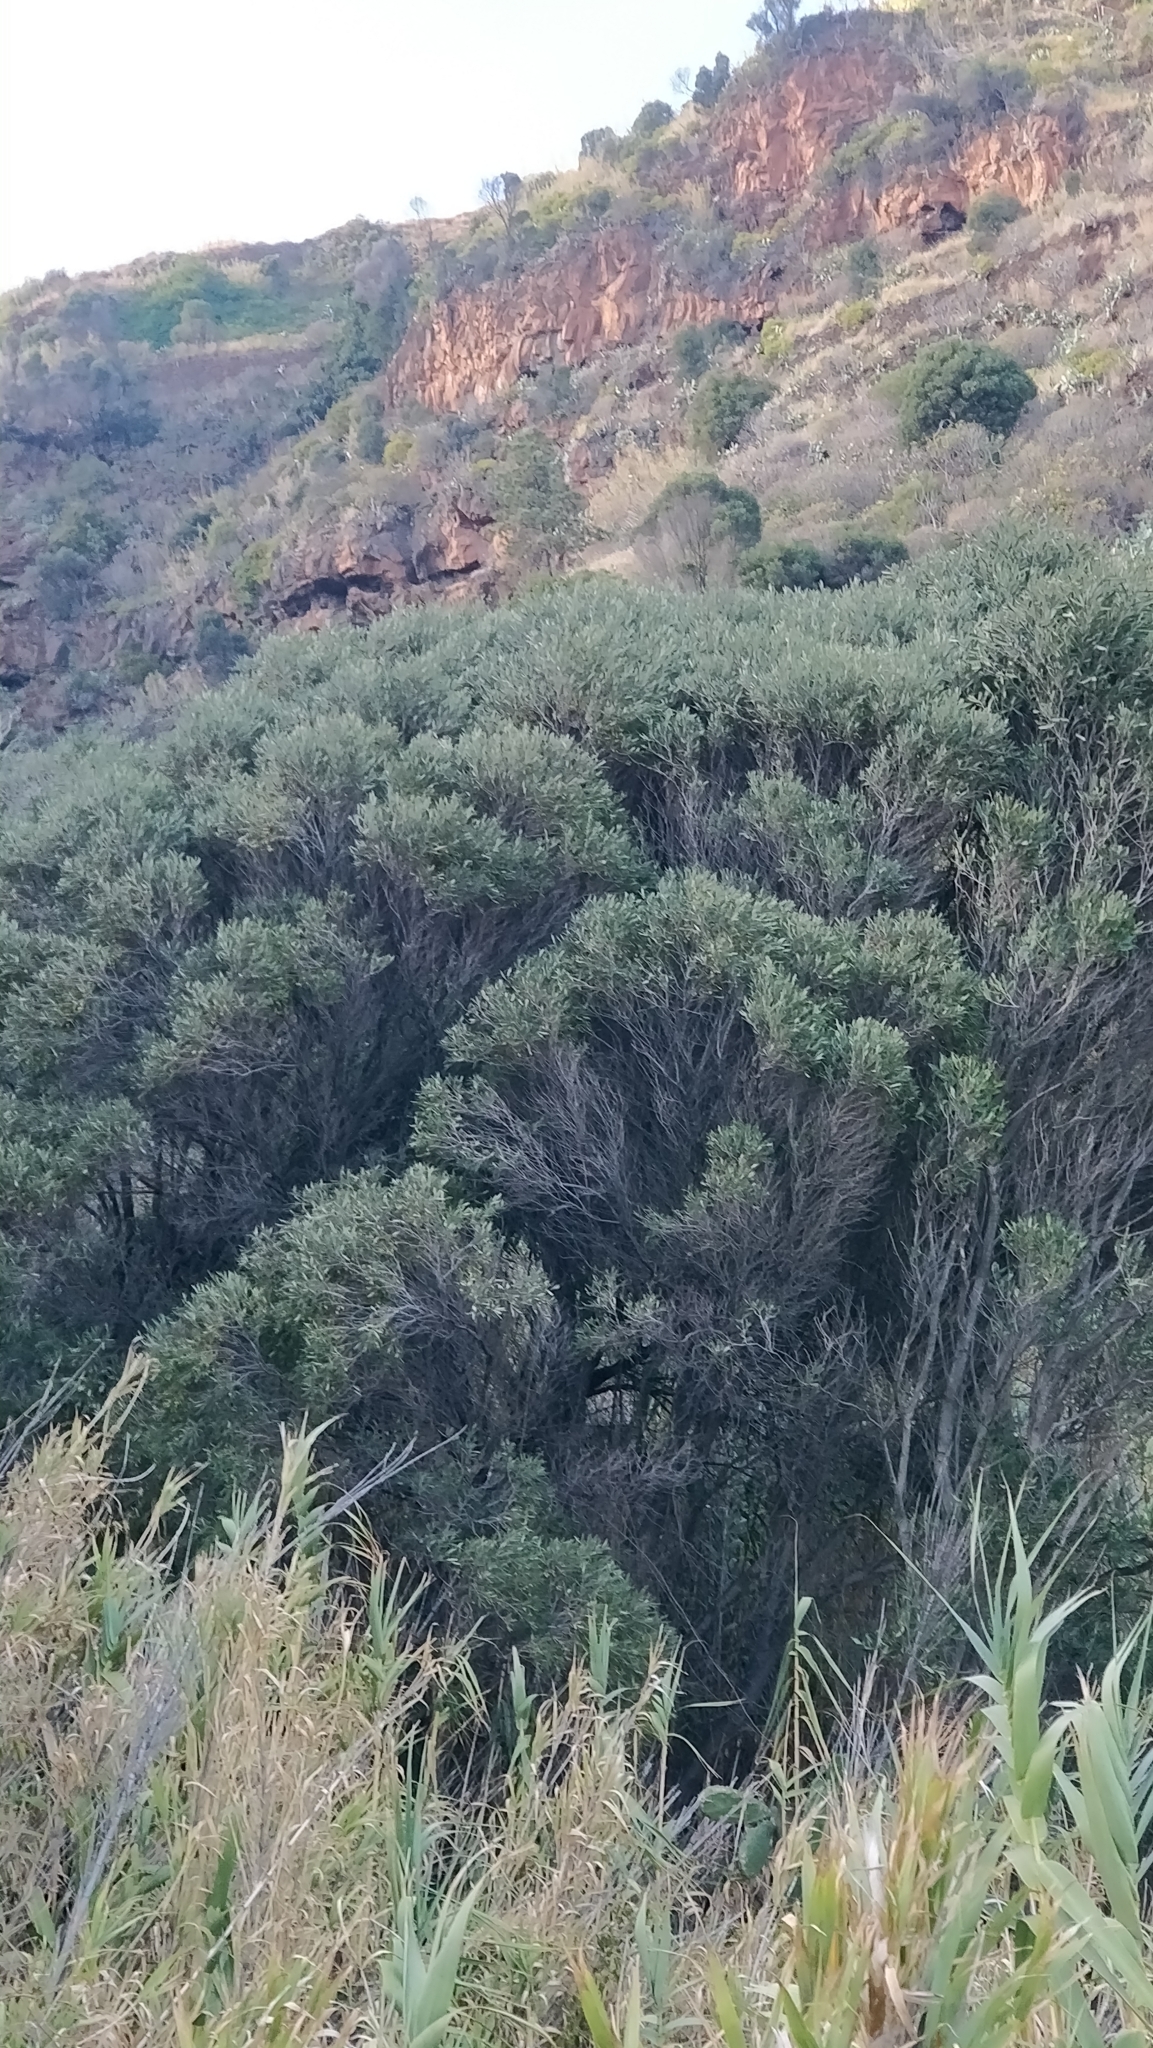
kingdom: Plantae
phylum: Tracheophyta
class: Magnoliopsida
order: Lamiales
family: Oleaceae
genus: Olea
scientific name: Olea europaea
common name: Olive
